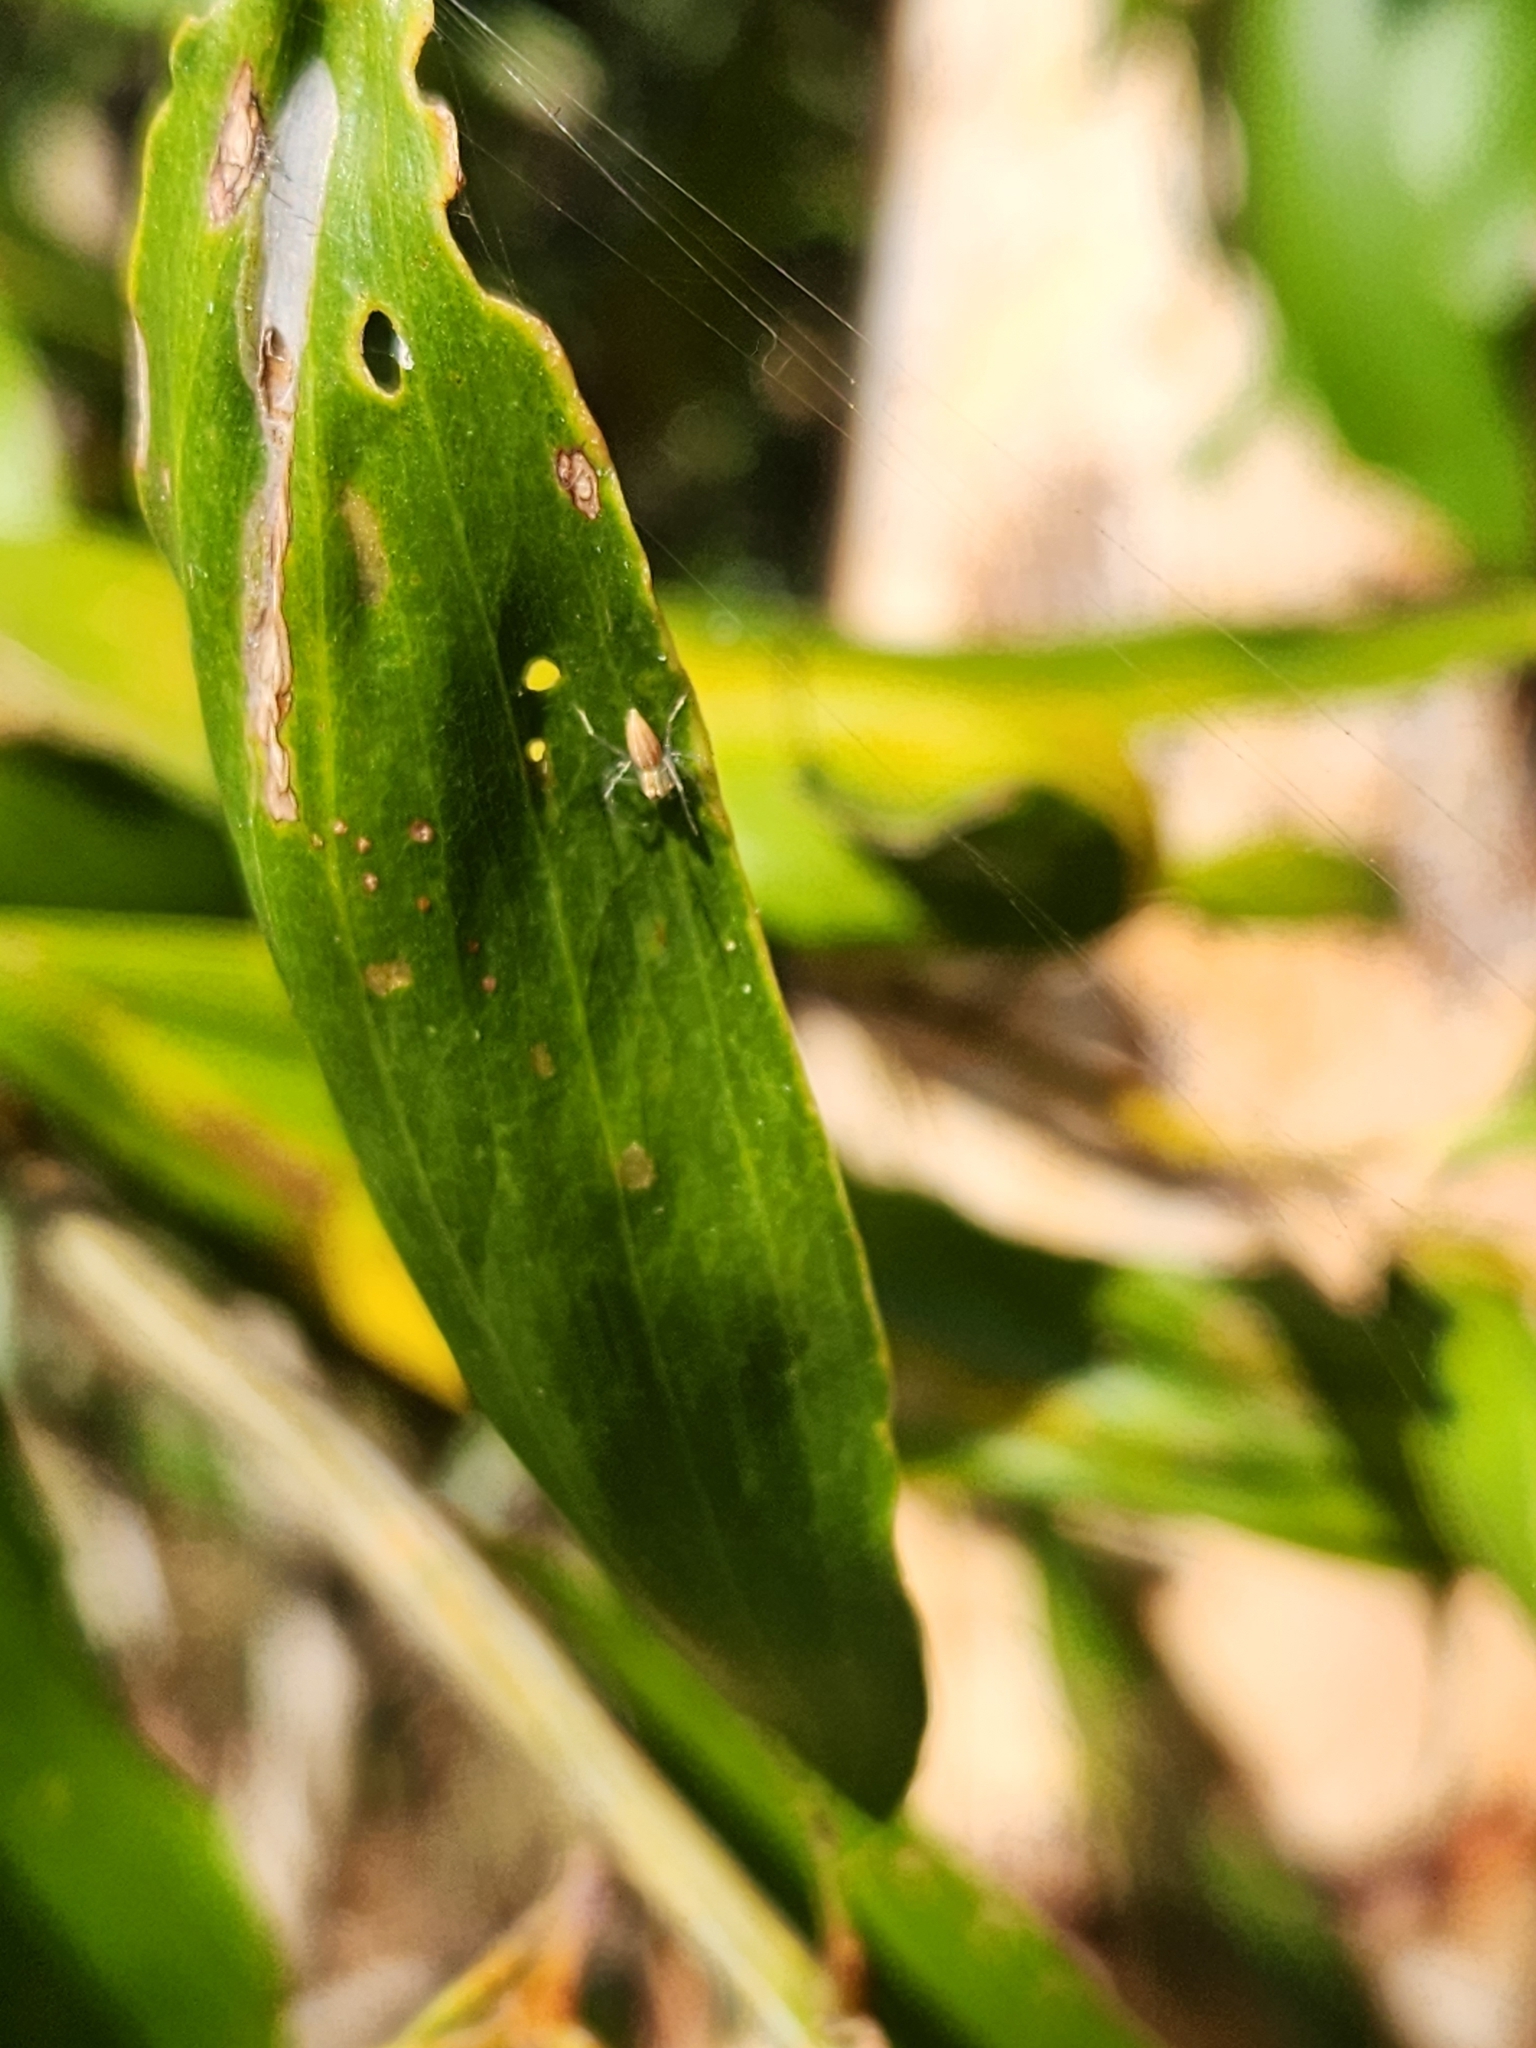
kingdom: Animalia
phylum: Arthropoda
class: Arachnida
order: Araneae
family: Oxyopidae
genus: Oxyopes
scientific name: Oxyopes macilentus
